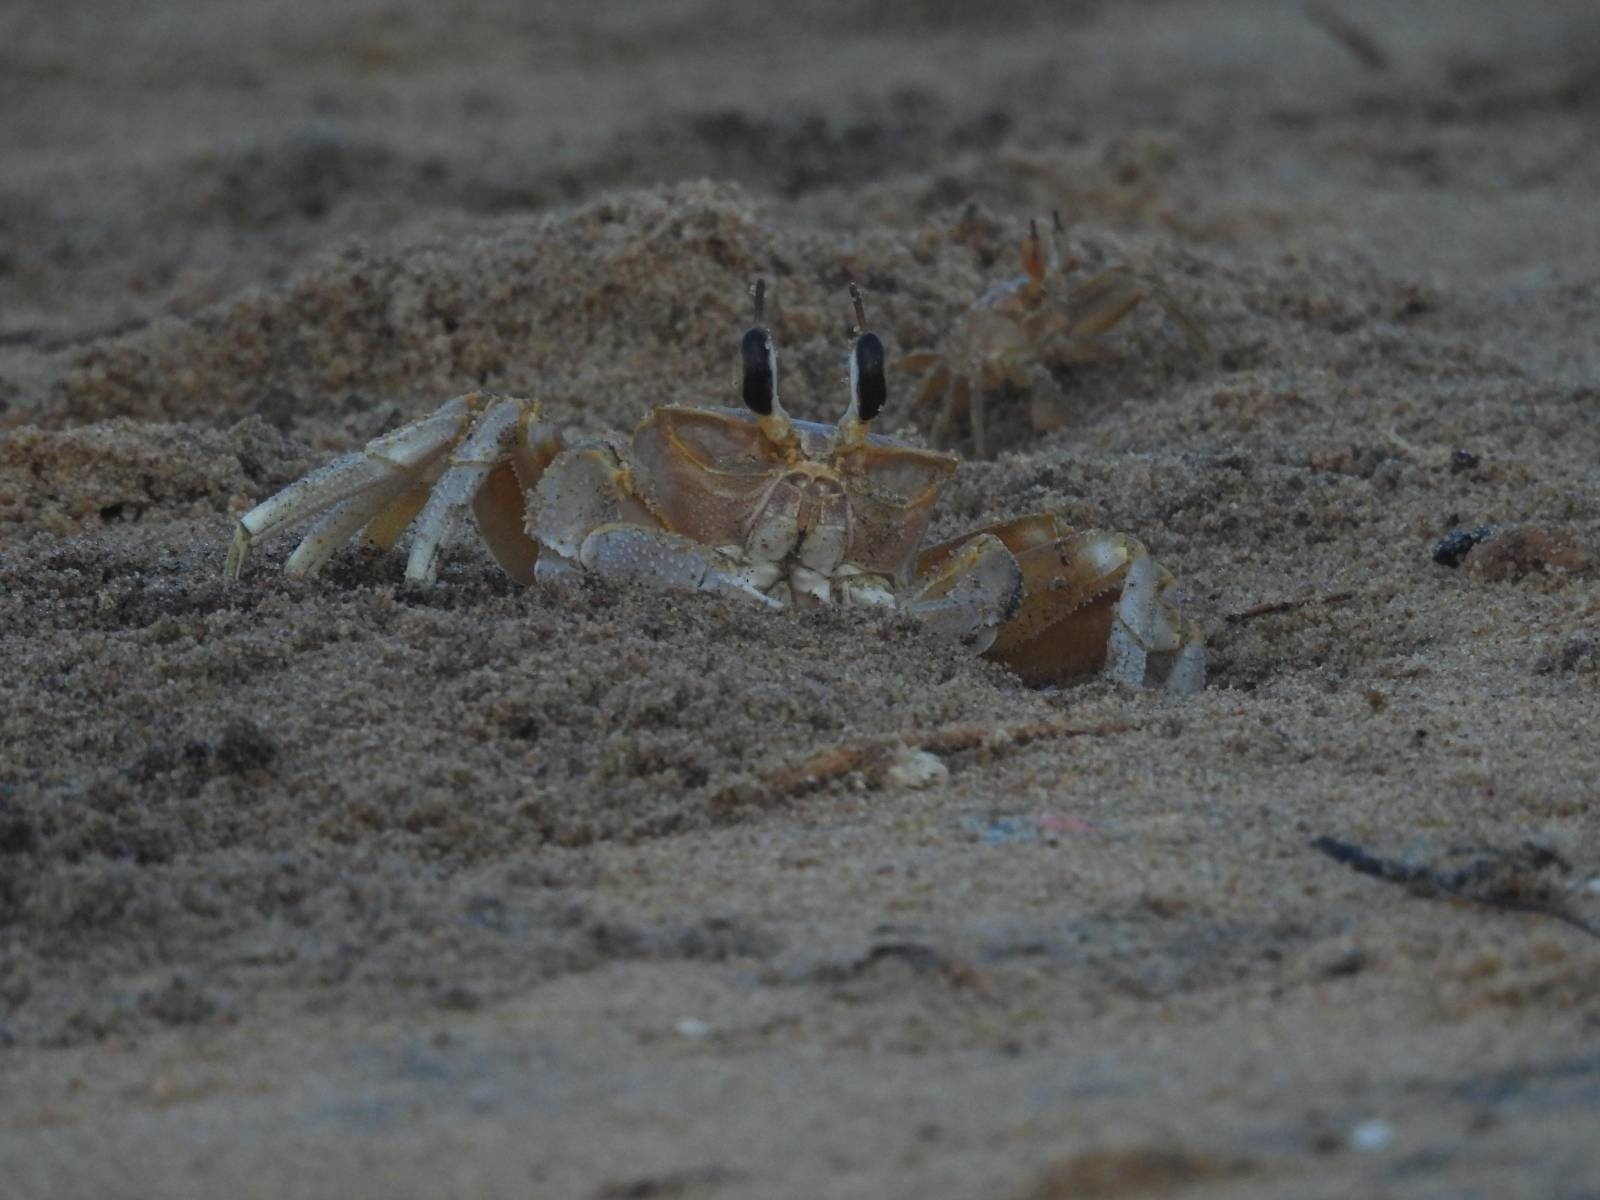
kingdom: Animalia
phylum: Arthropoda
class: Malacostraca
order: Decapoda
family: Ocypodidae
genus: Ocypode
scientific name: Ocypode brevicornis
